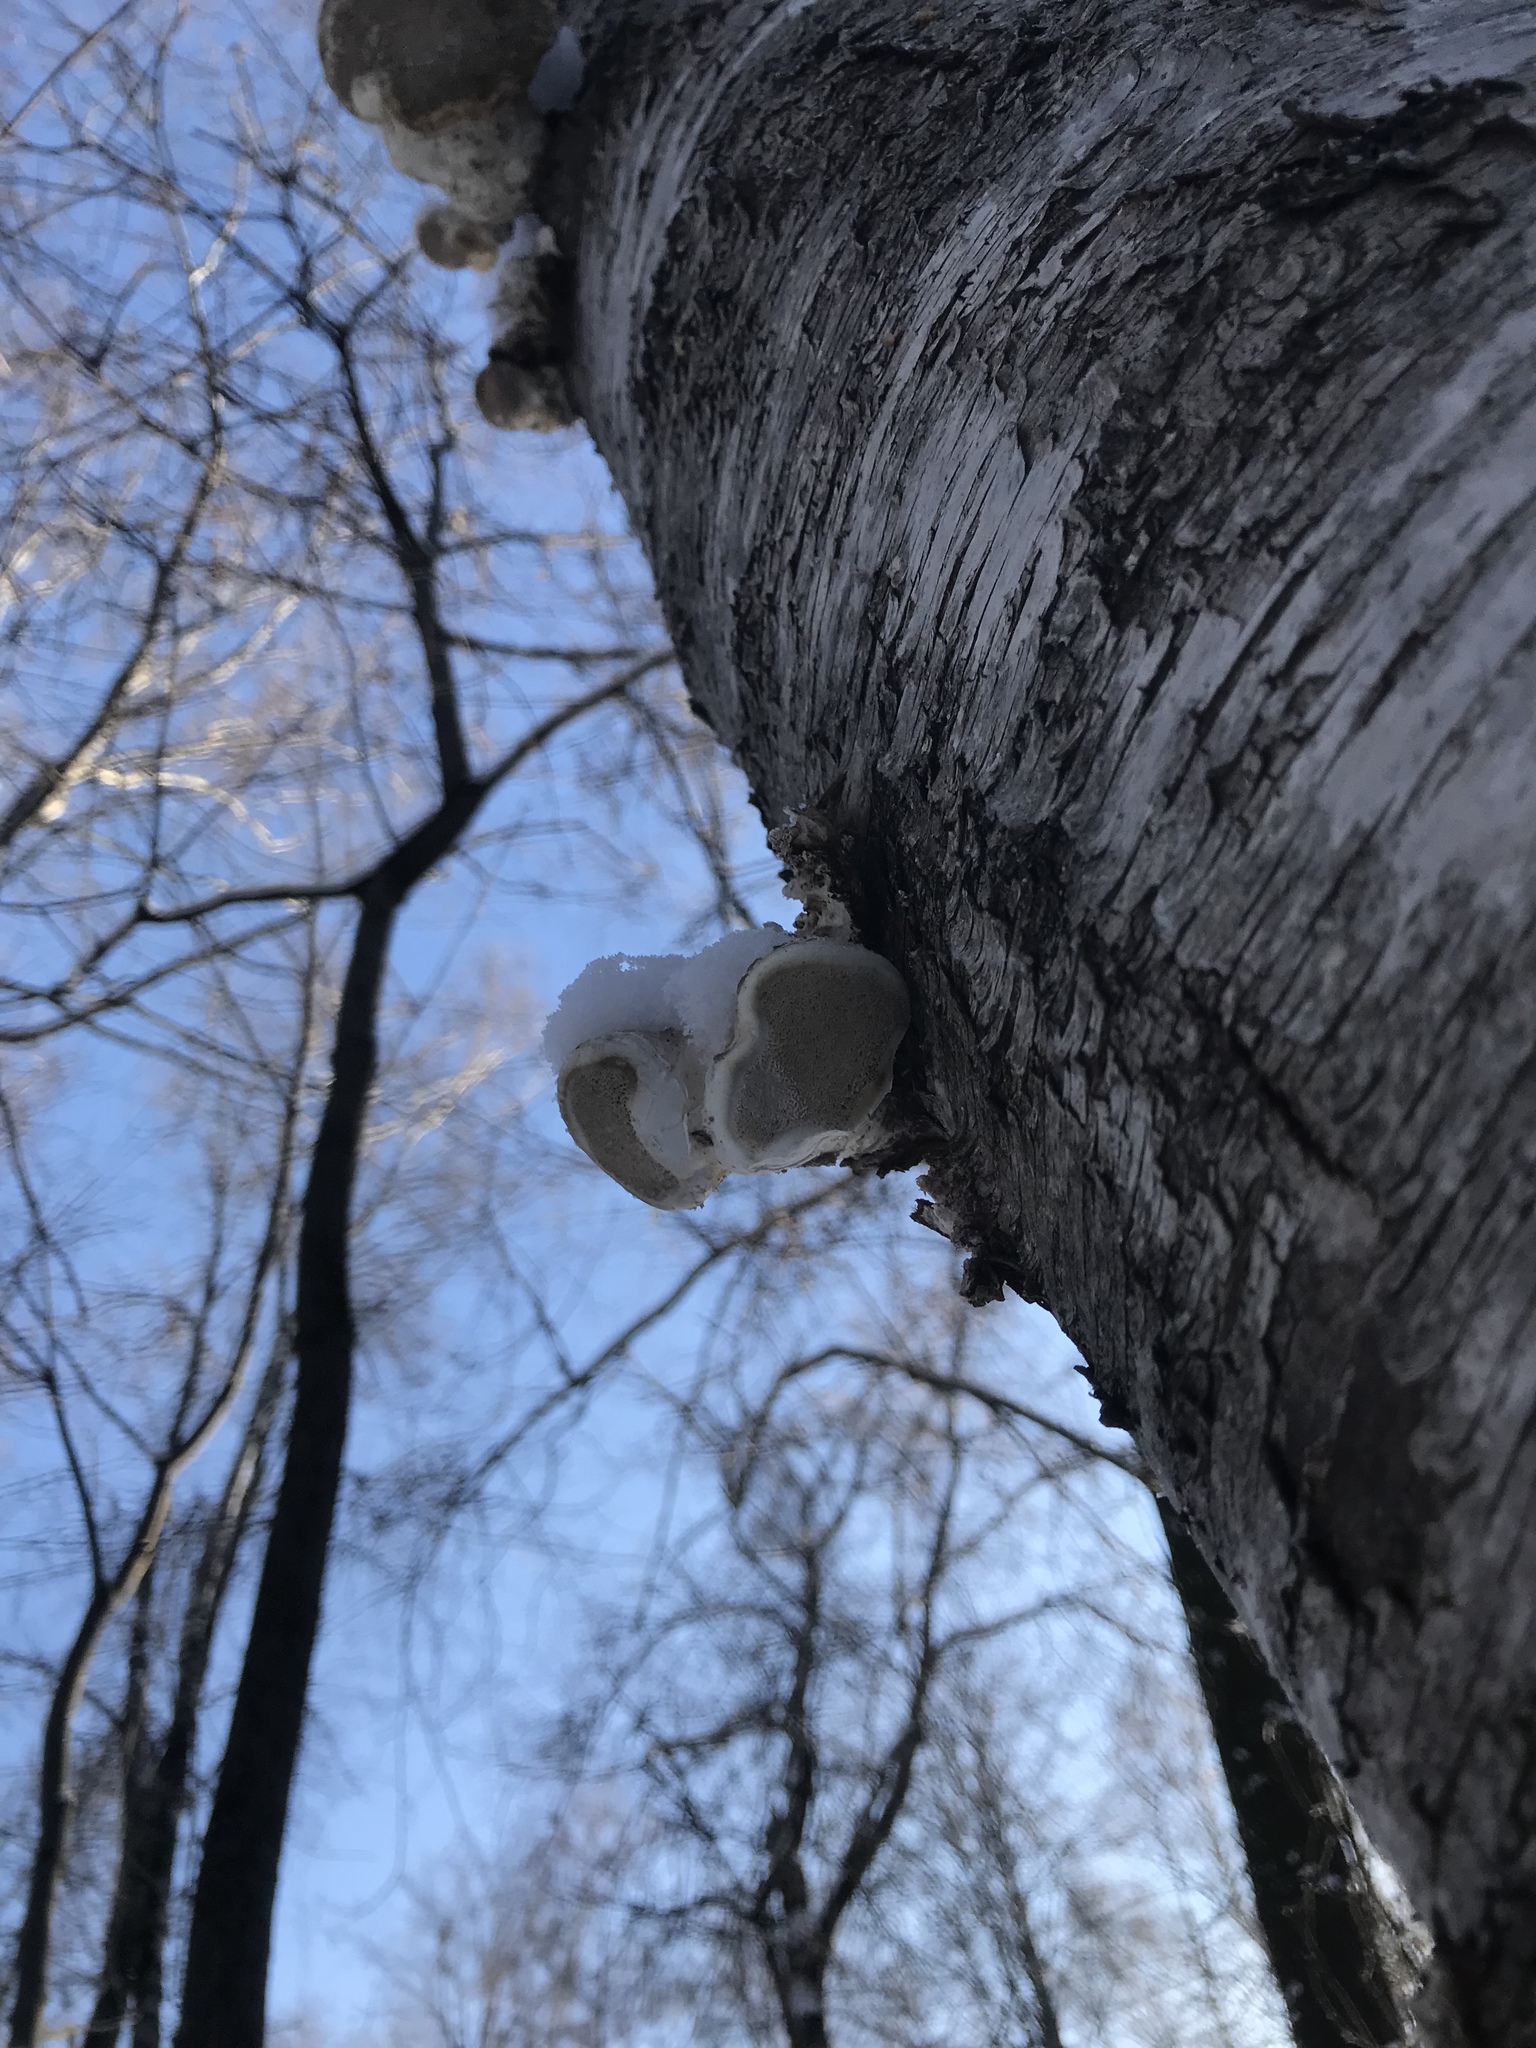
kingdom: Fungi
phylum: Basidiomycota
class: Agaricomycetes
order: Polyporales
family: Fomitopsidaceae
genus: Fomitopsis
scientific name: Fomitopsis betulina
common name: Birch polypore
